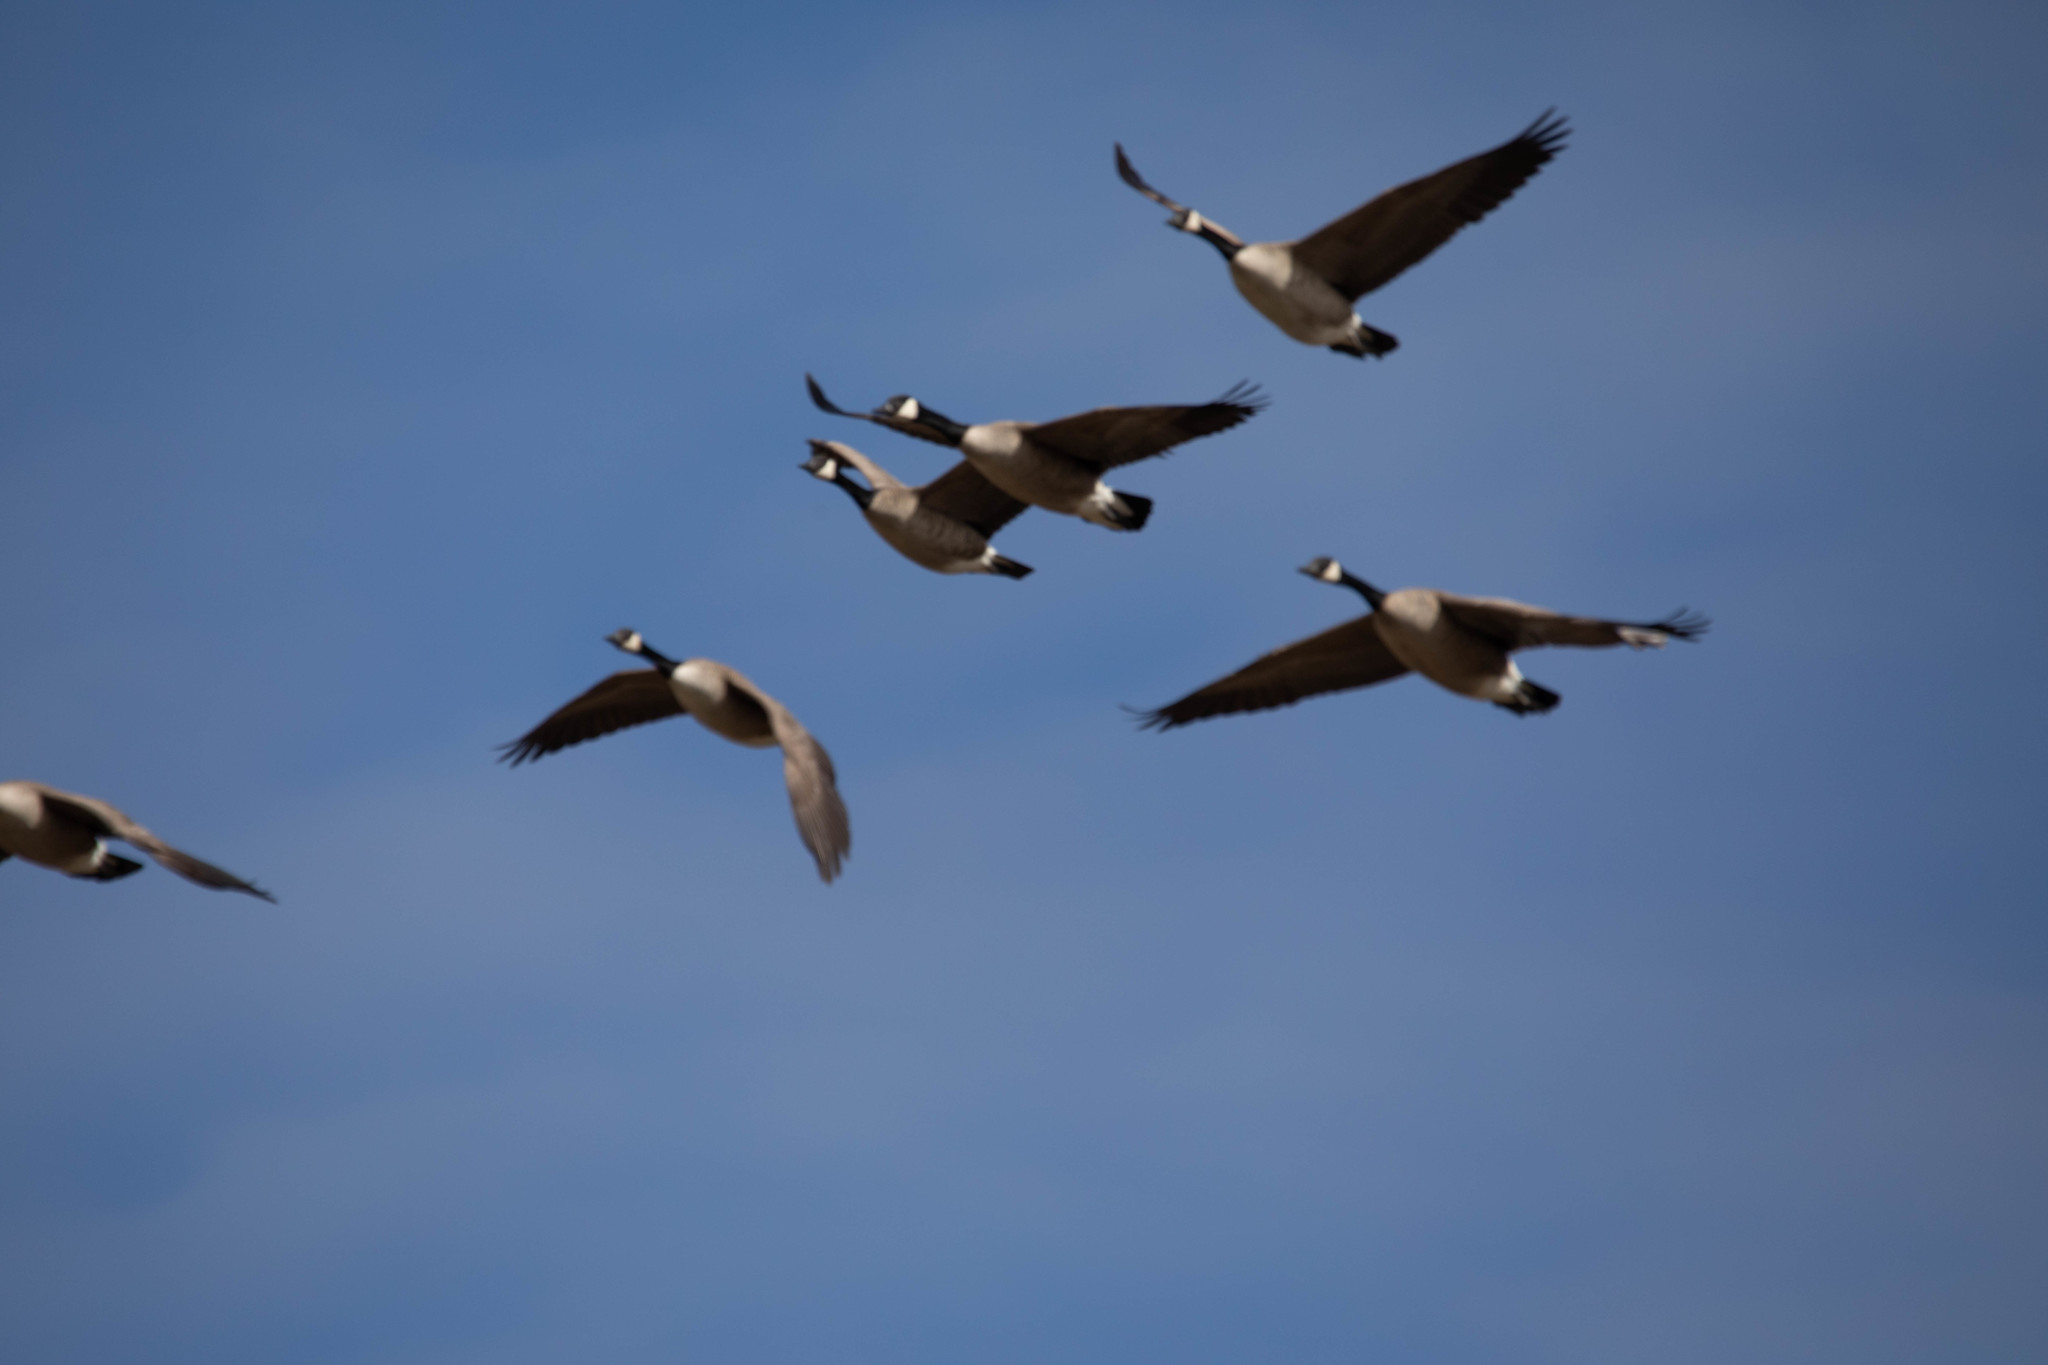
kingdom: Animalia
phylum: Chordata
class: Aves
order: Anseriformes
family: Anatidae
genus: Branta
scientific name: Branta canadensis
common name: Canada goose
